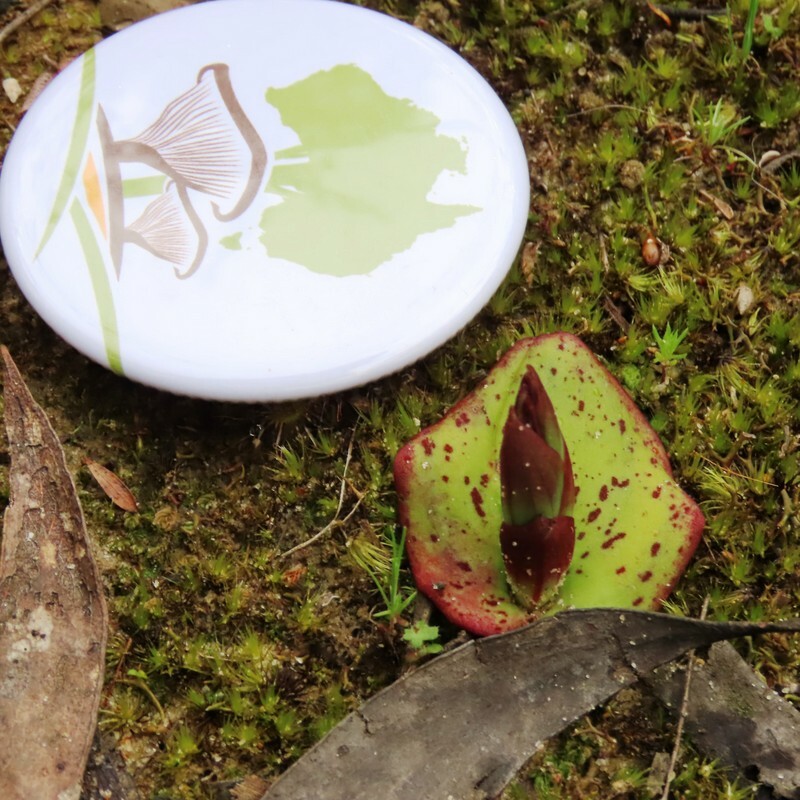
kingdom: Plantae
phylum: Tracheophyta
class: Liliopsida
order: Asparagales
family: Orchidaceae
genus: Pyrorchis
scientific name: Pyrorchis nigricans
